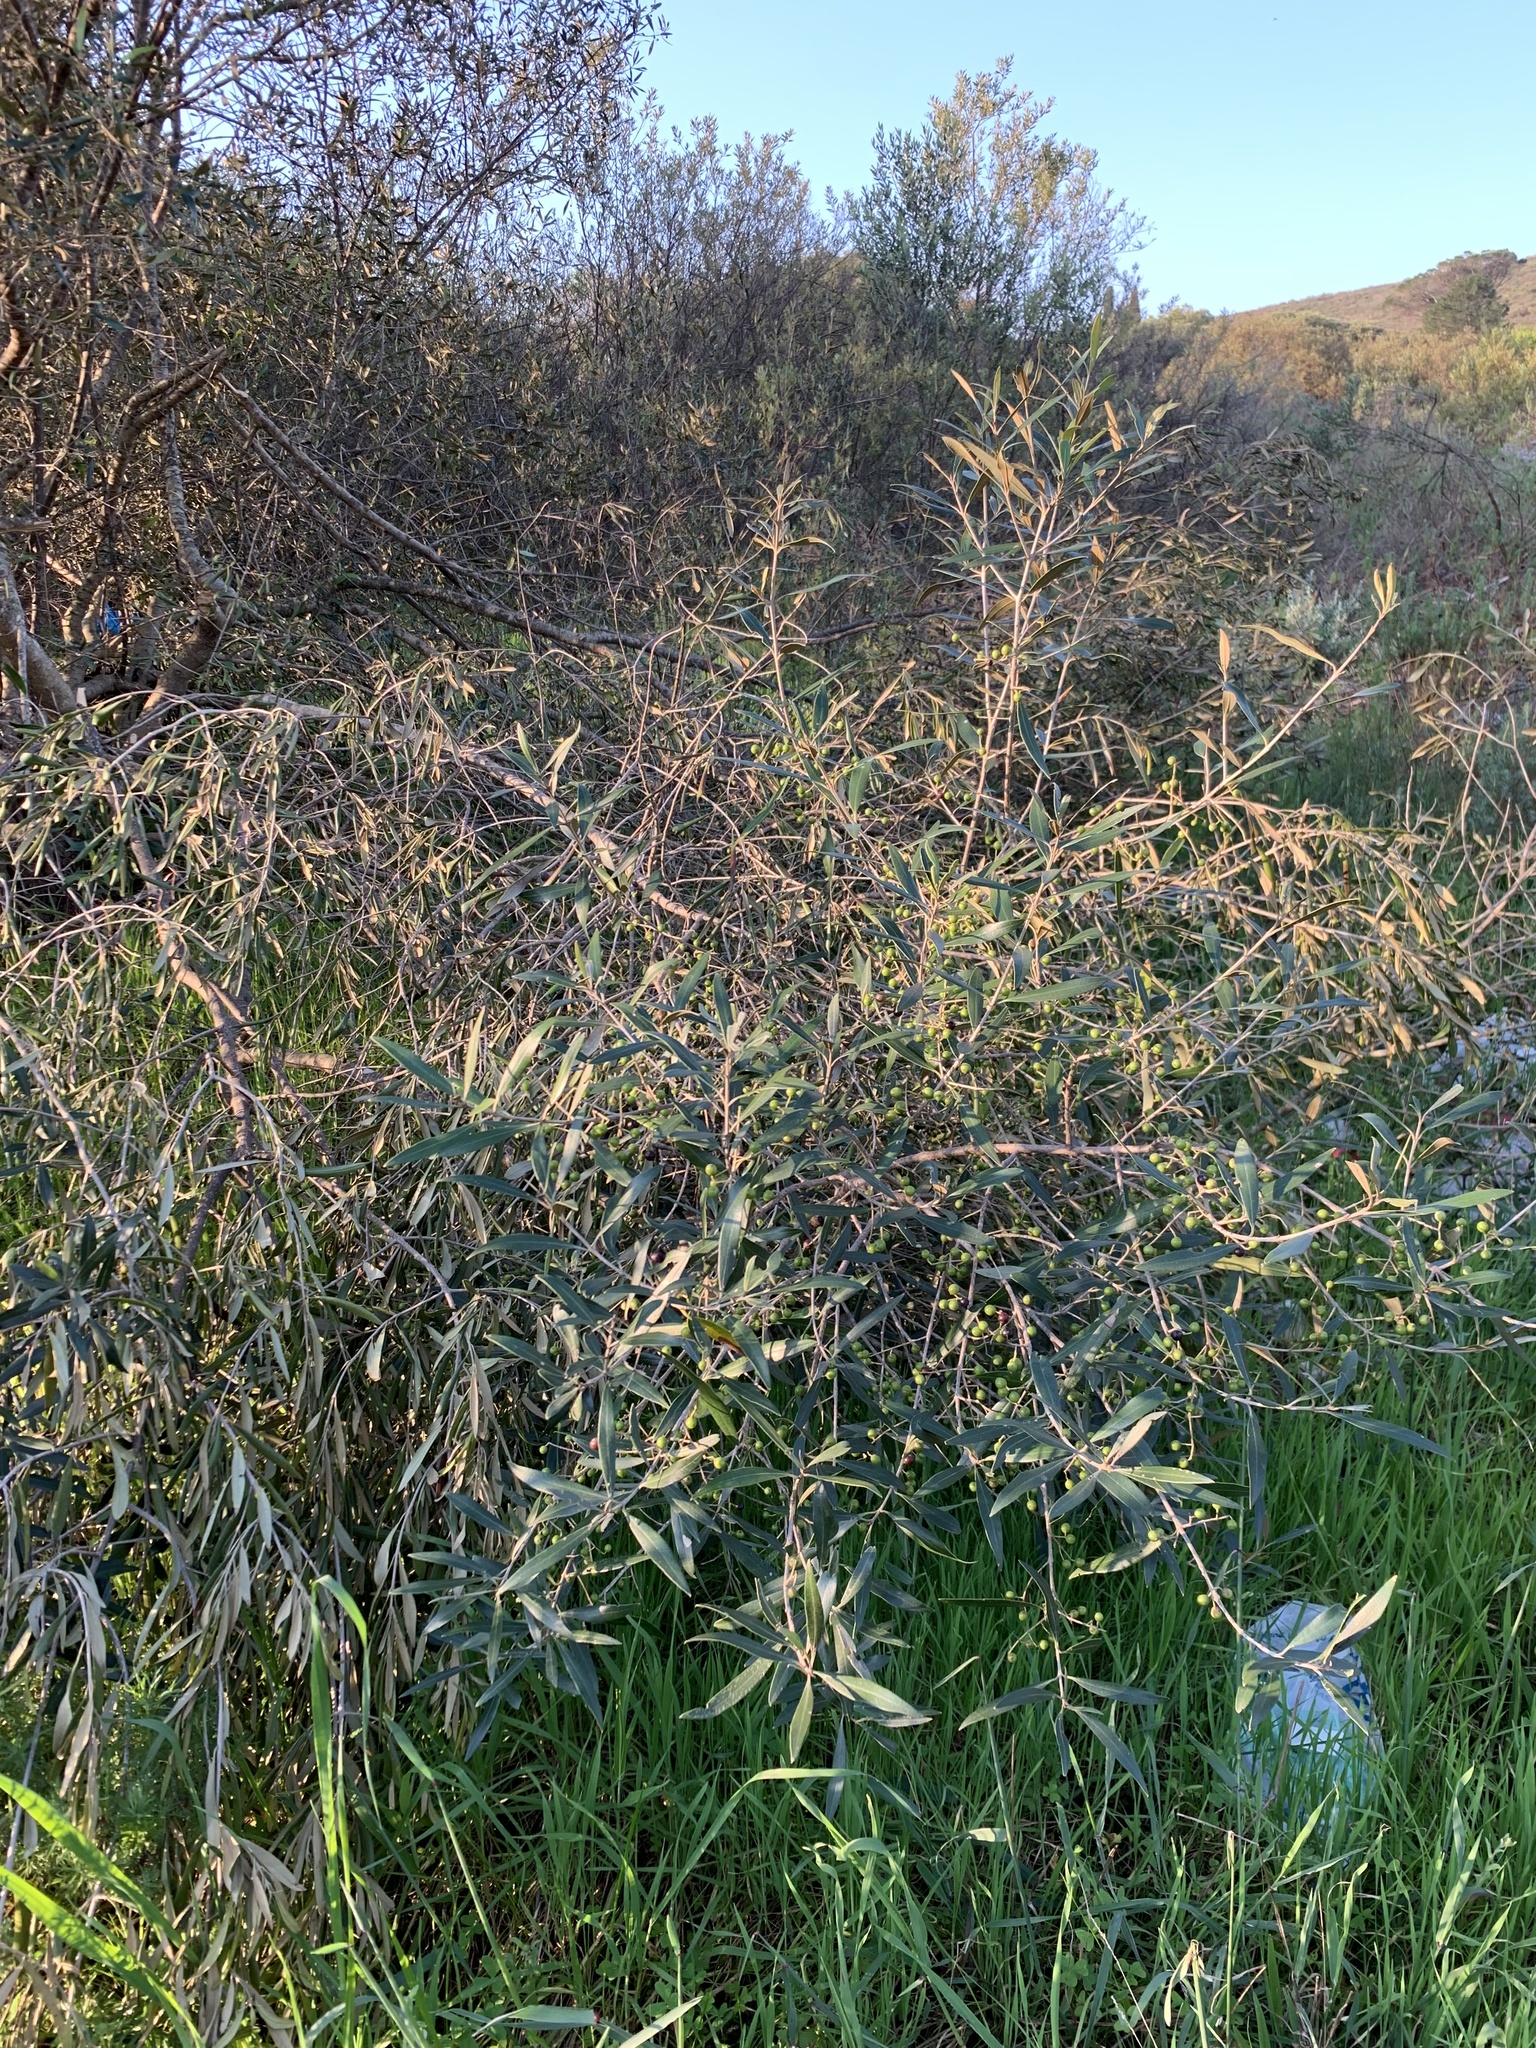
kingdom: Plantae
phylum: Tracheophyta
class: Magnoliopsida
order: Lamiales
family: Oleaceae
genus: Olea
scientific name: Olea europaea
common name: Olive
